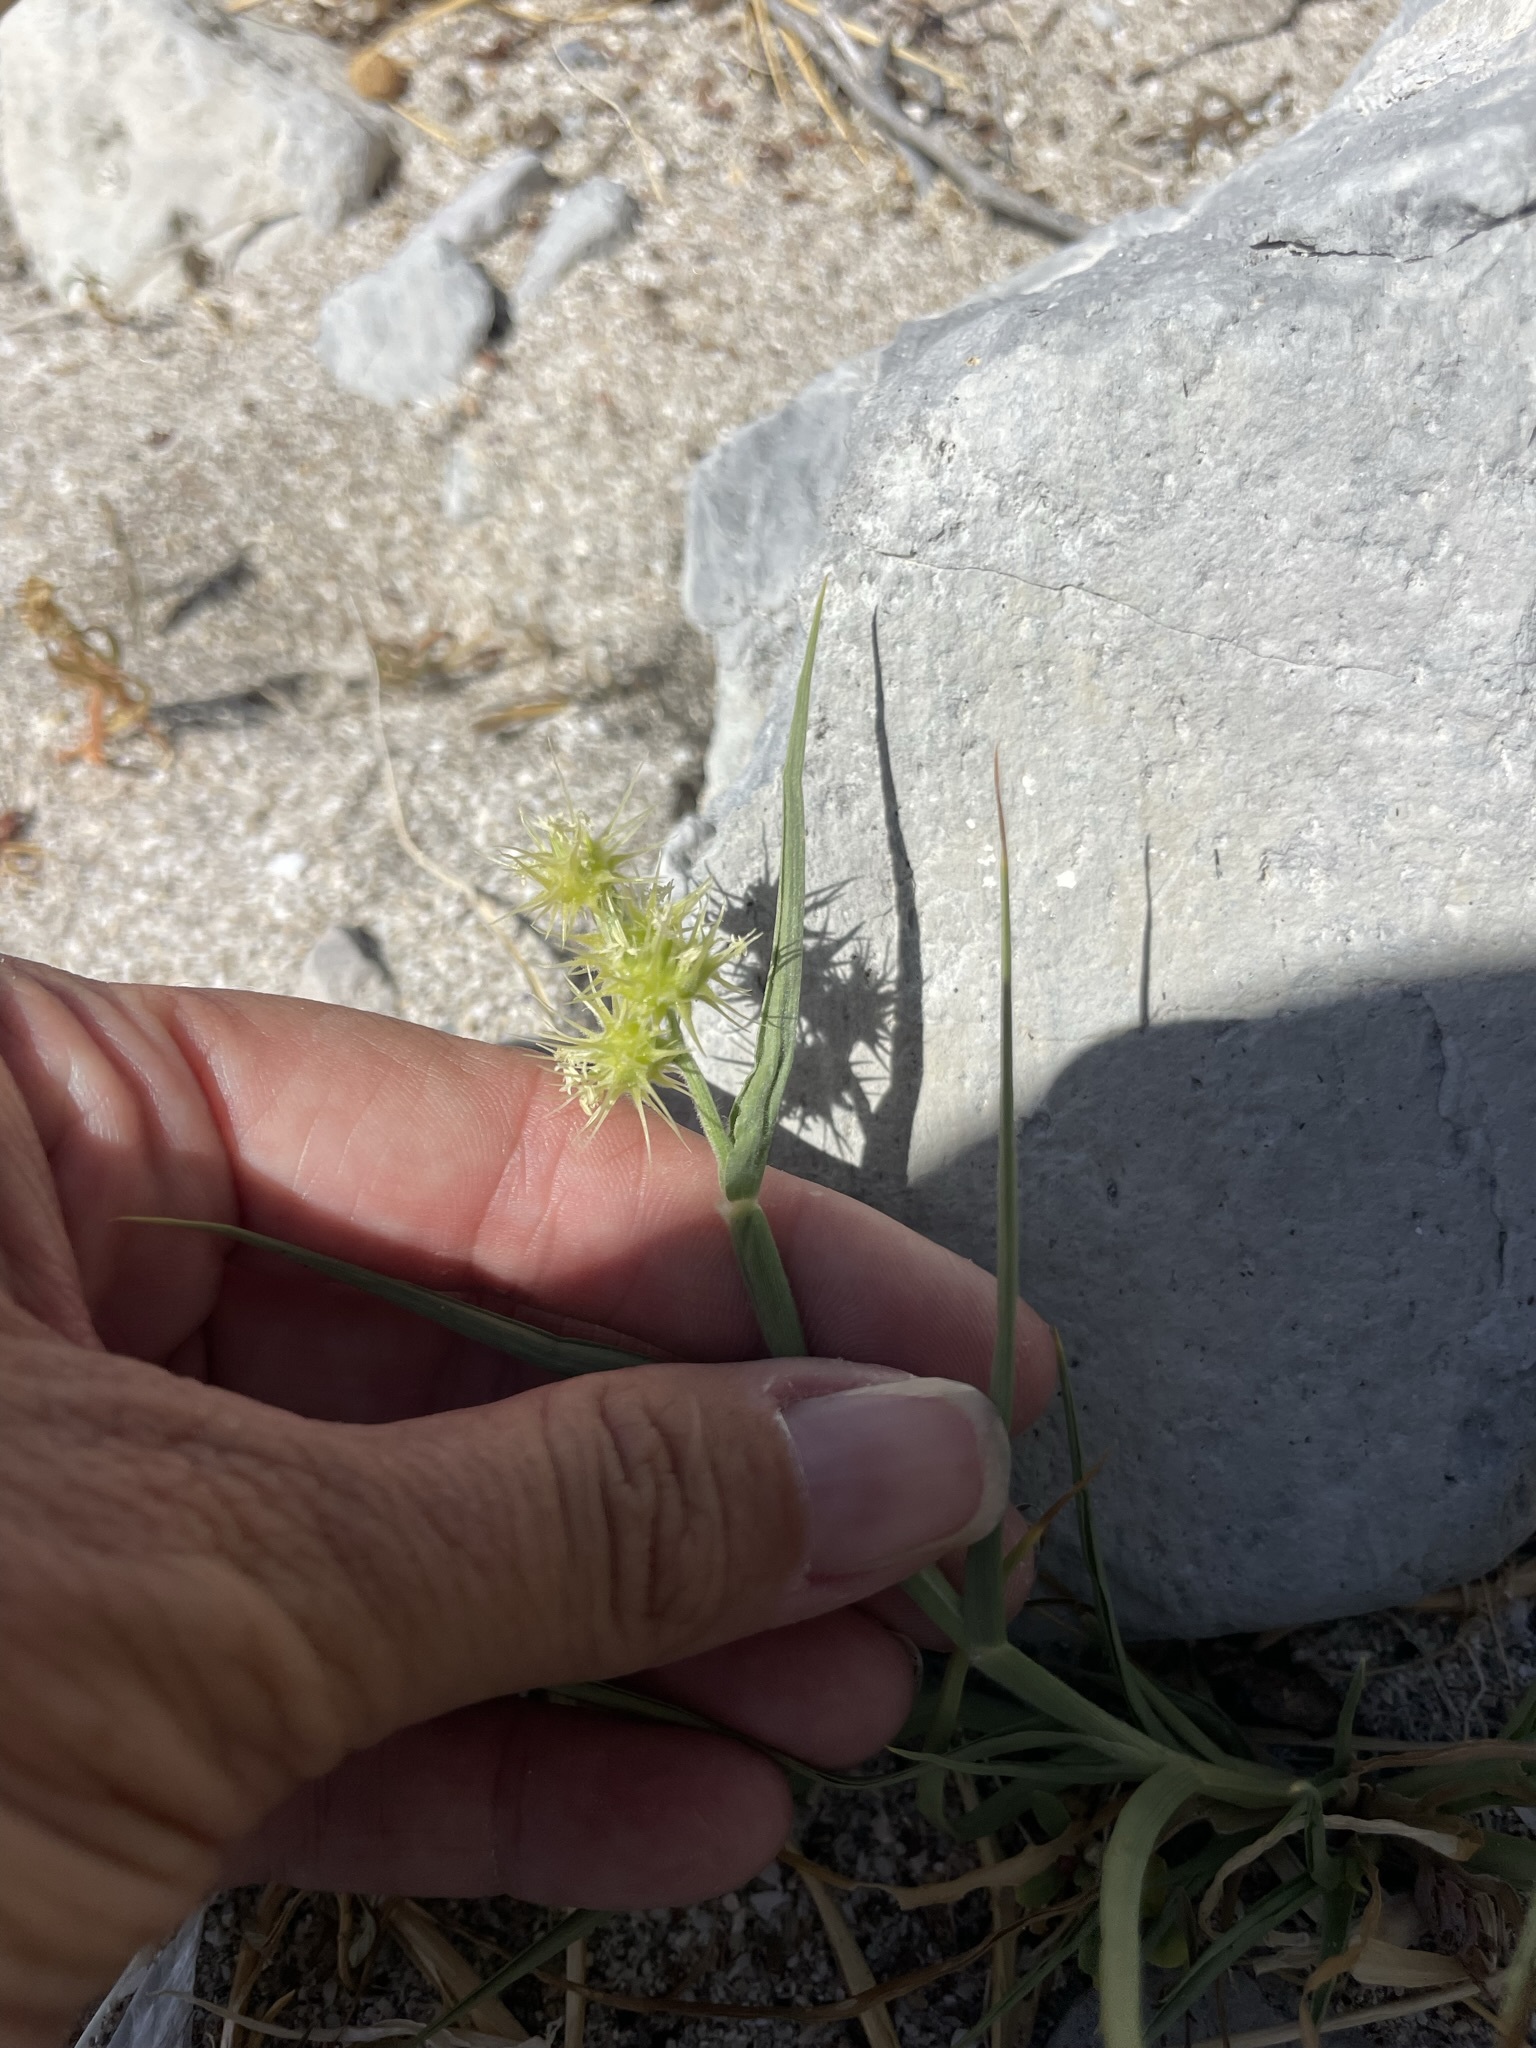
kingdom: Plantae
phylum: Tracheophyta
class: Liliopsida
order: Poales
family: Poaceae
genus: Cenchrus
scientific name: Cenchrus palmeri
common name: Giant sandbur
